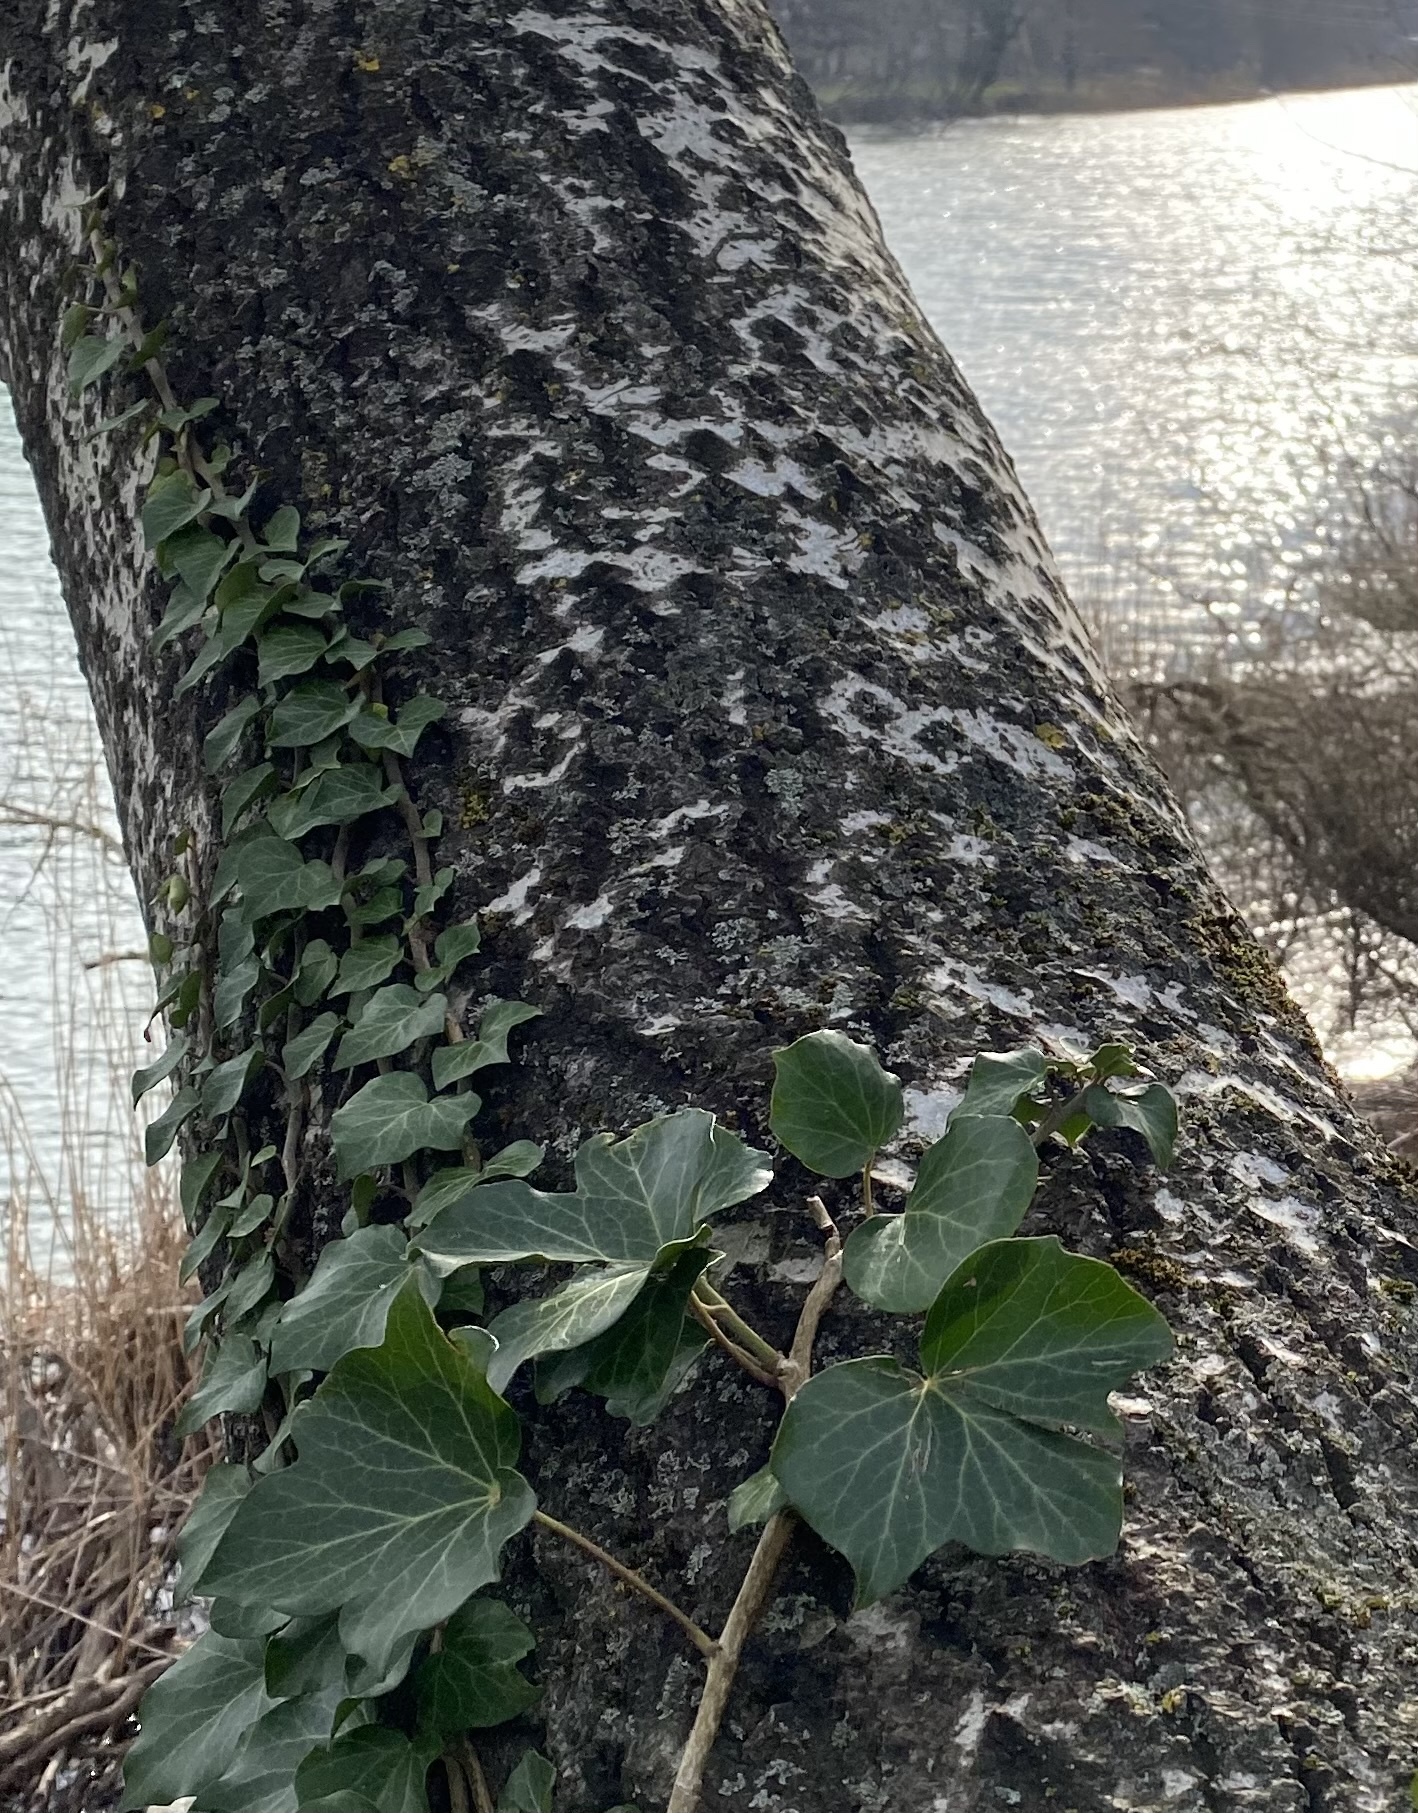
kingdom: Plantae
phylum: Tracheophyta
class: Magnoliopsida
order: Apiales
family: Araliaceae
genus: Hedera
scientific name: Hedera helix
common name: Ivy
